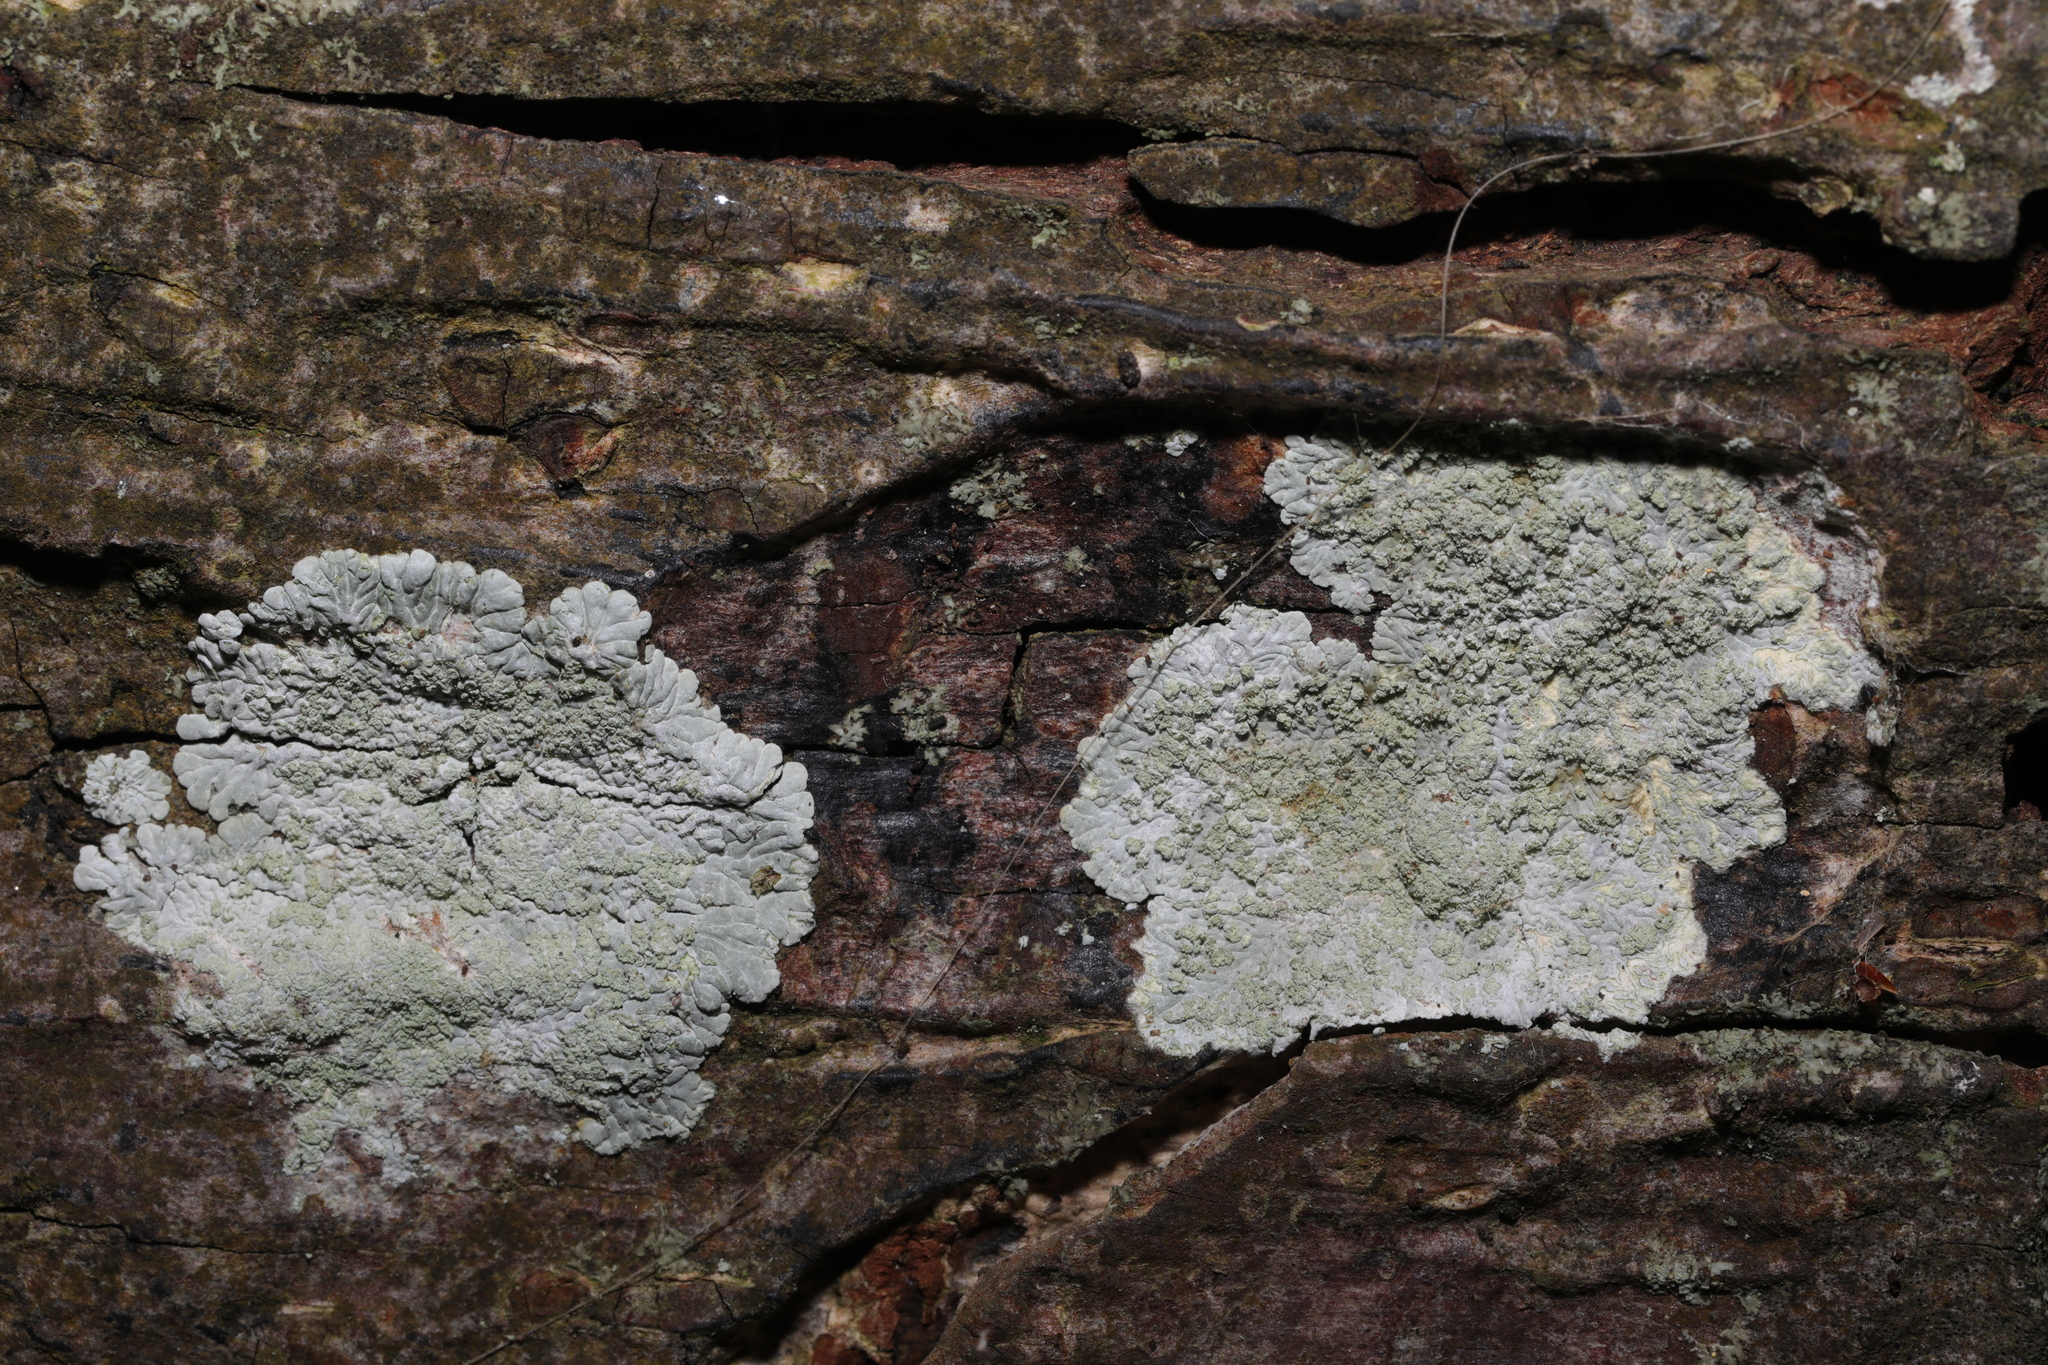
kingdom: Fungi
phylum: Ascomycota
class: Lecanoromycetes
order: Caliciales
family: Caliciaceae
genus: Diploicia
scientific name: Diploicia canescens
